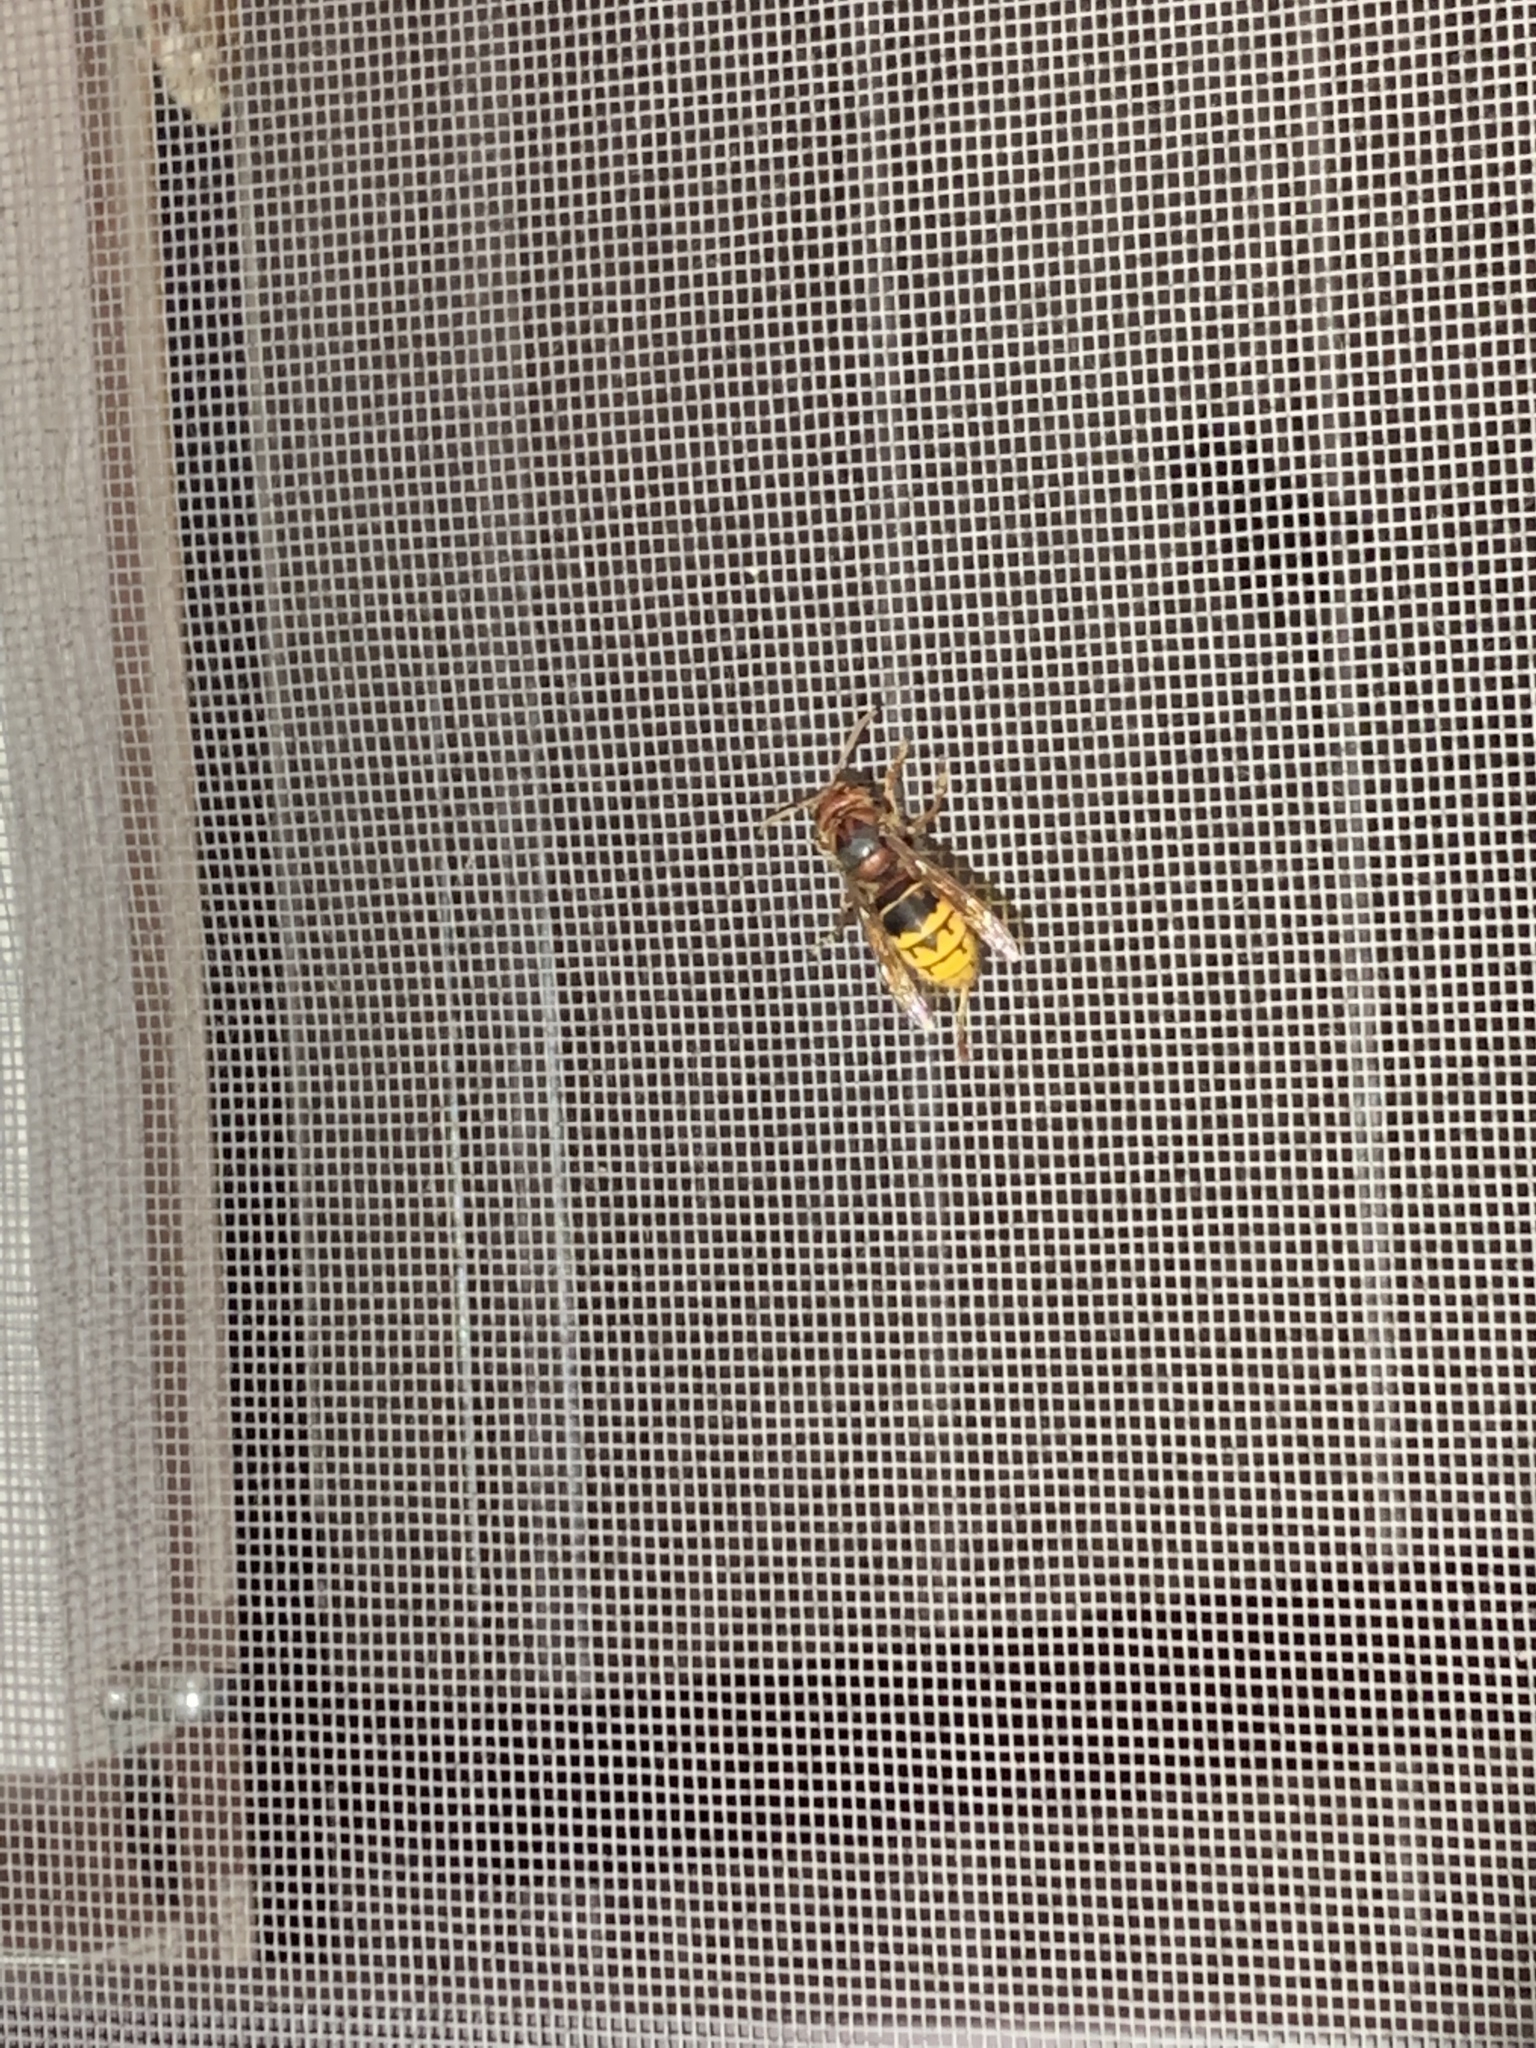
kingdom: Animalia
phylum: Arthropoda
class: Insecta
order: Hymenoptera
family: Vespidae
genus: Vespa
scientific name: Vespa crabro
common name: Hornet
